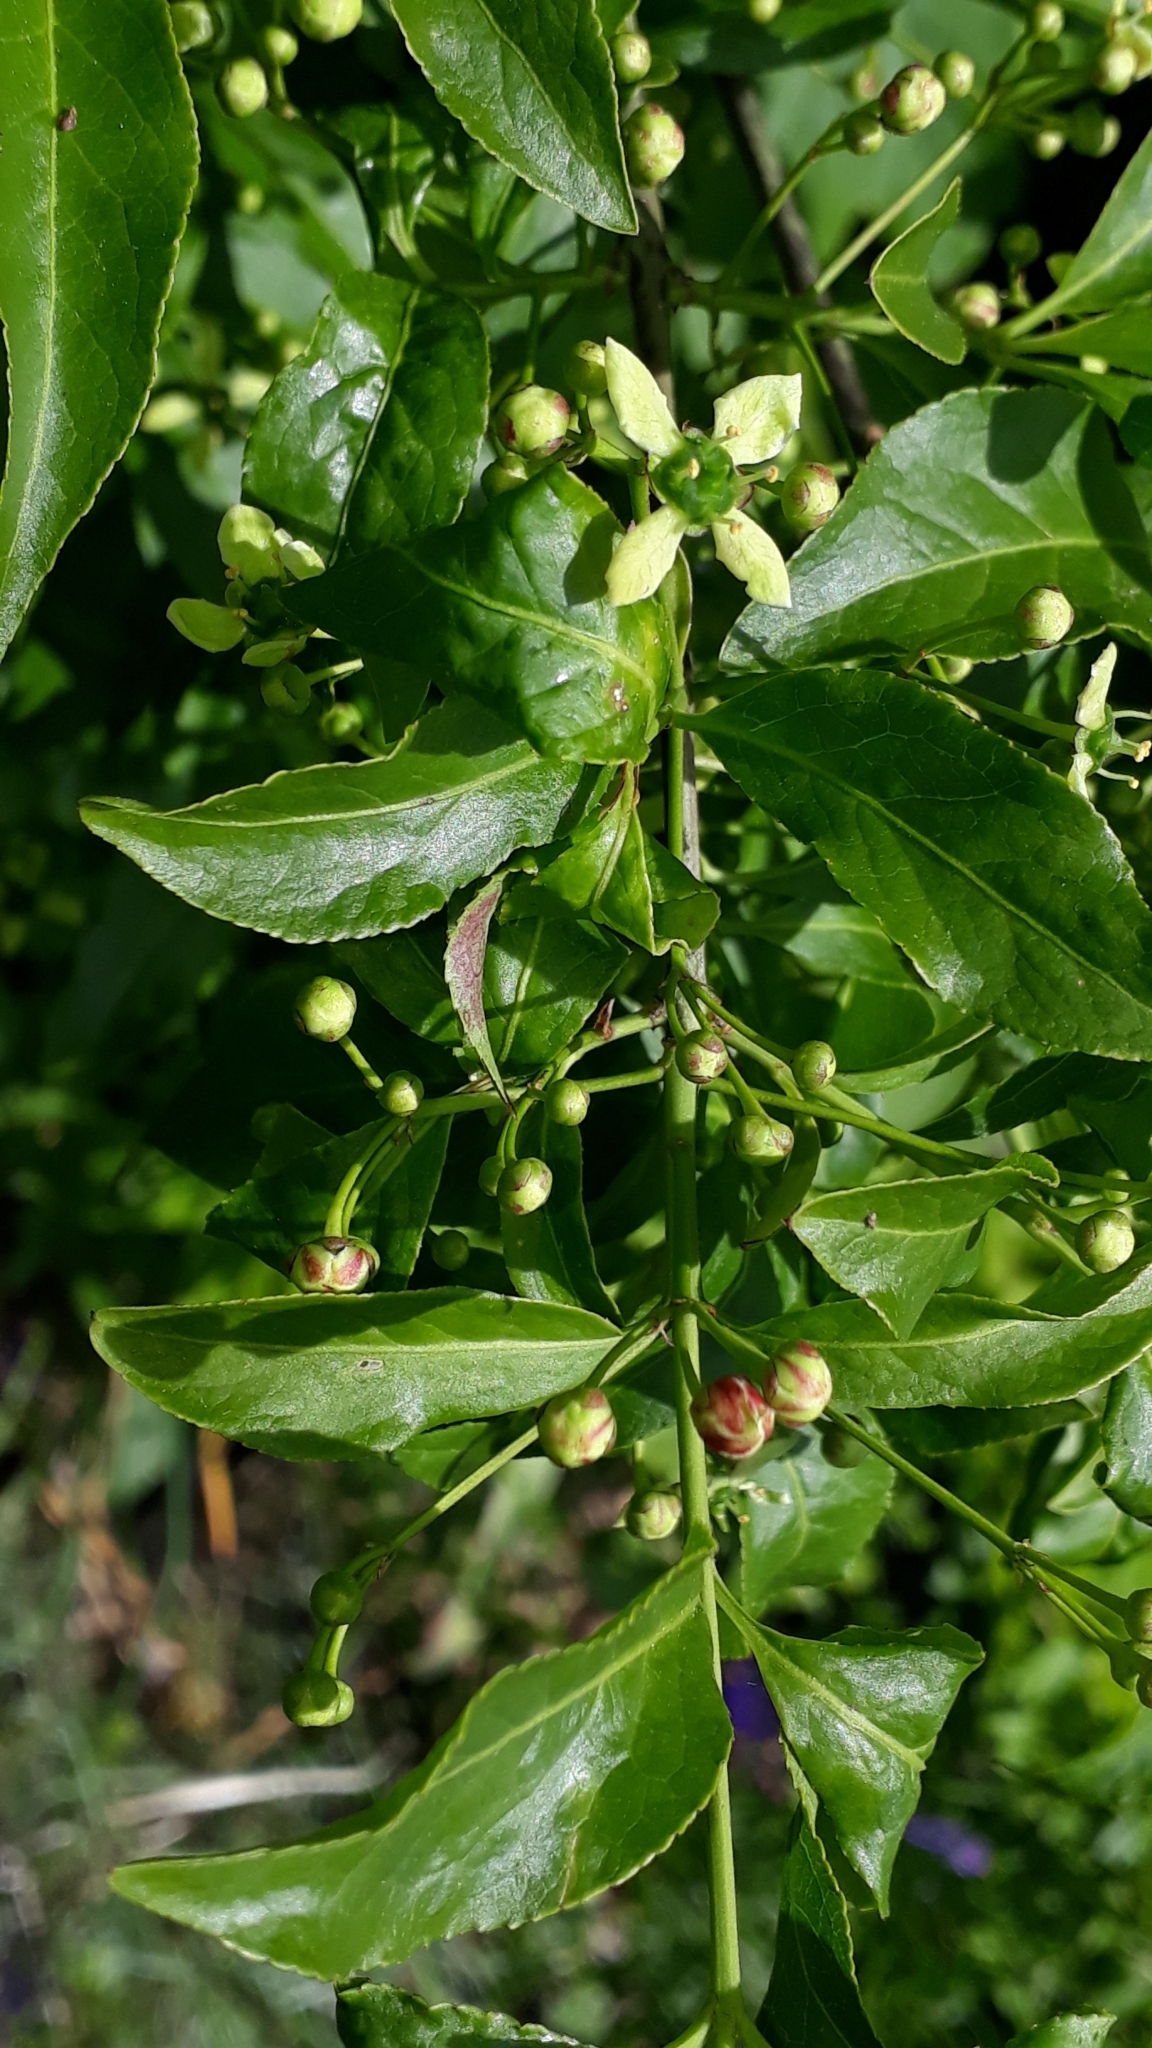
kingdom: Plantae
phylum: Tracheophyta
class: Magnoliopsida
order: Celastrales
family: Celastraceae
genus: Euonymus
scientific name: Euonymus europaeus
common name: Spindle
